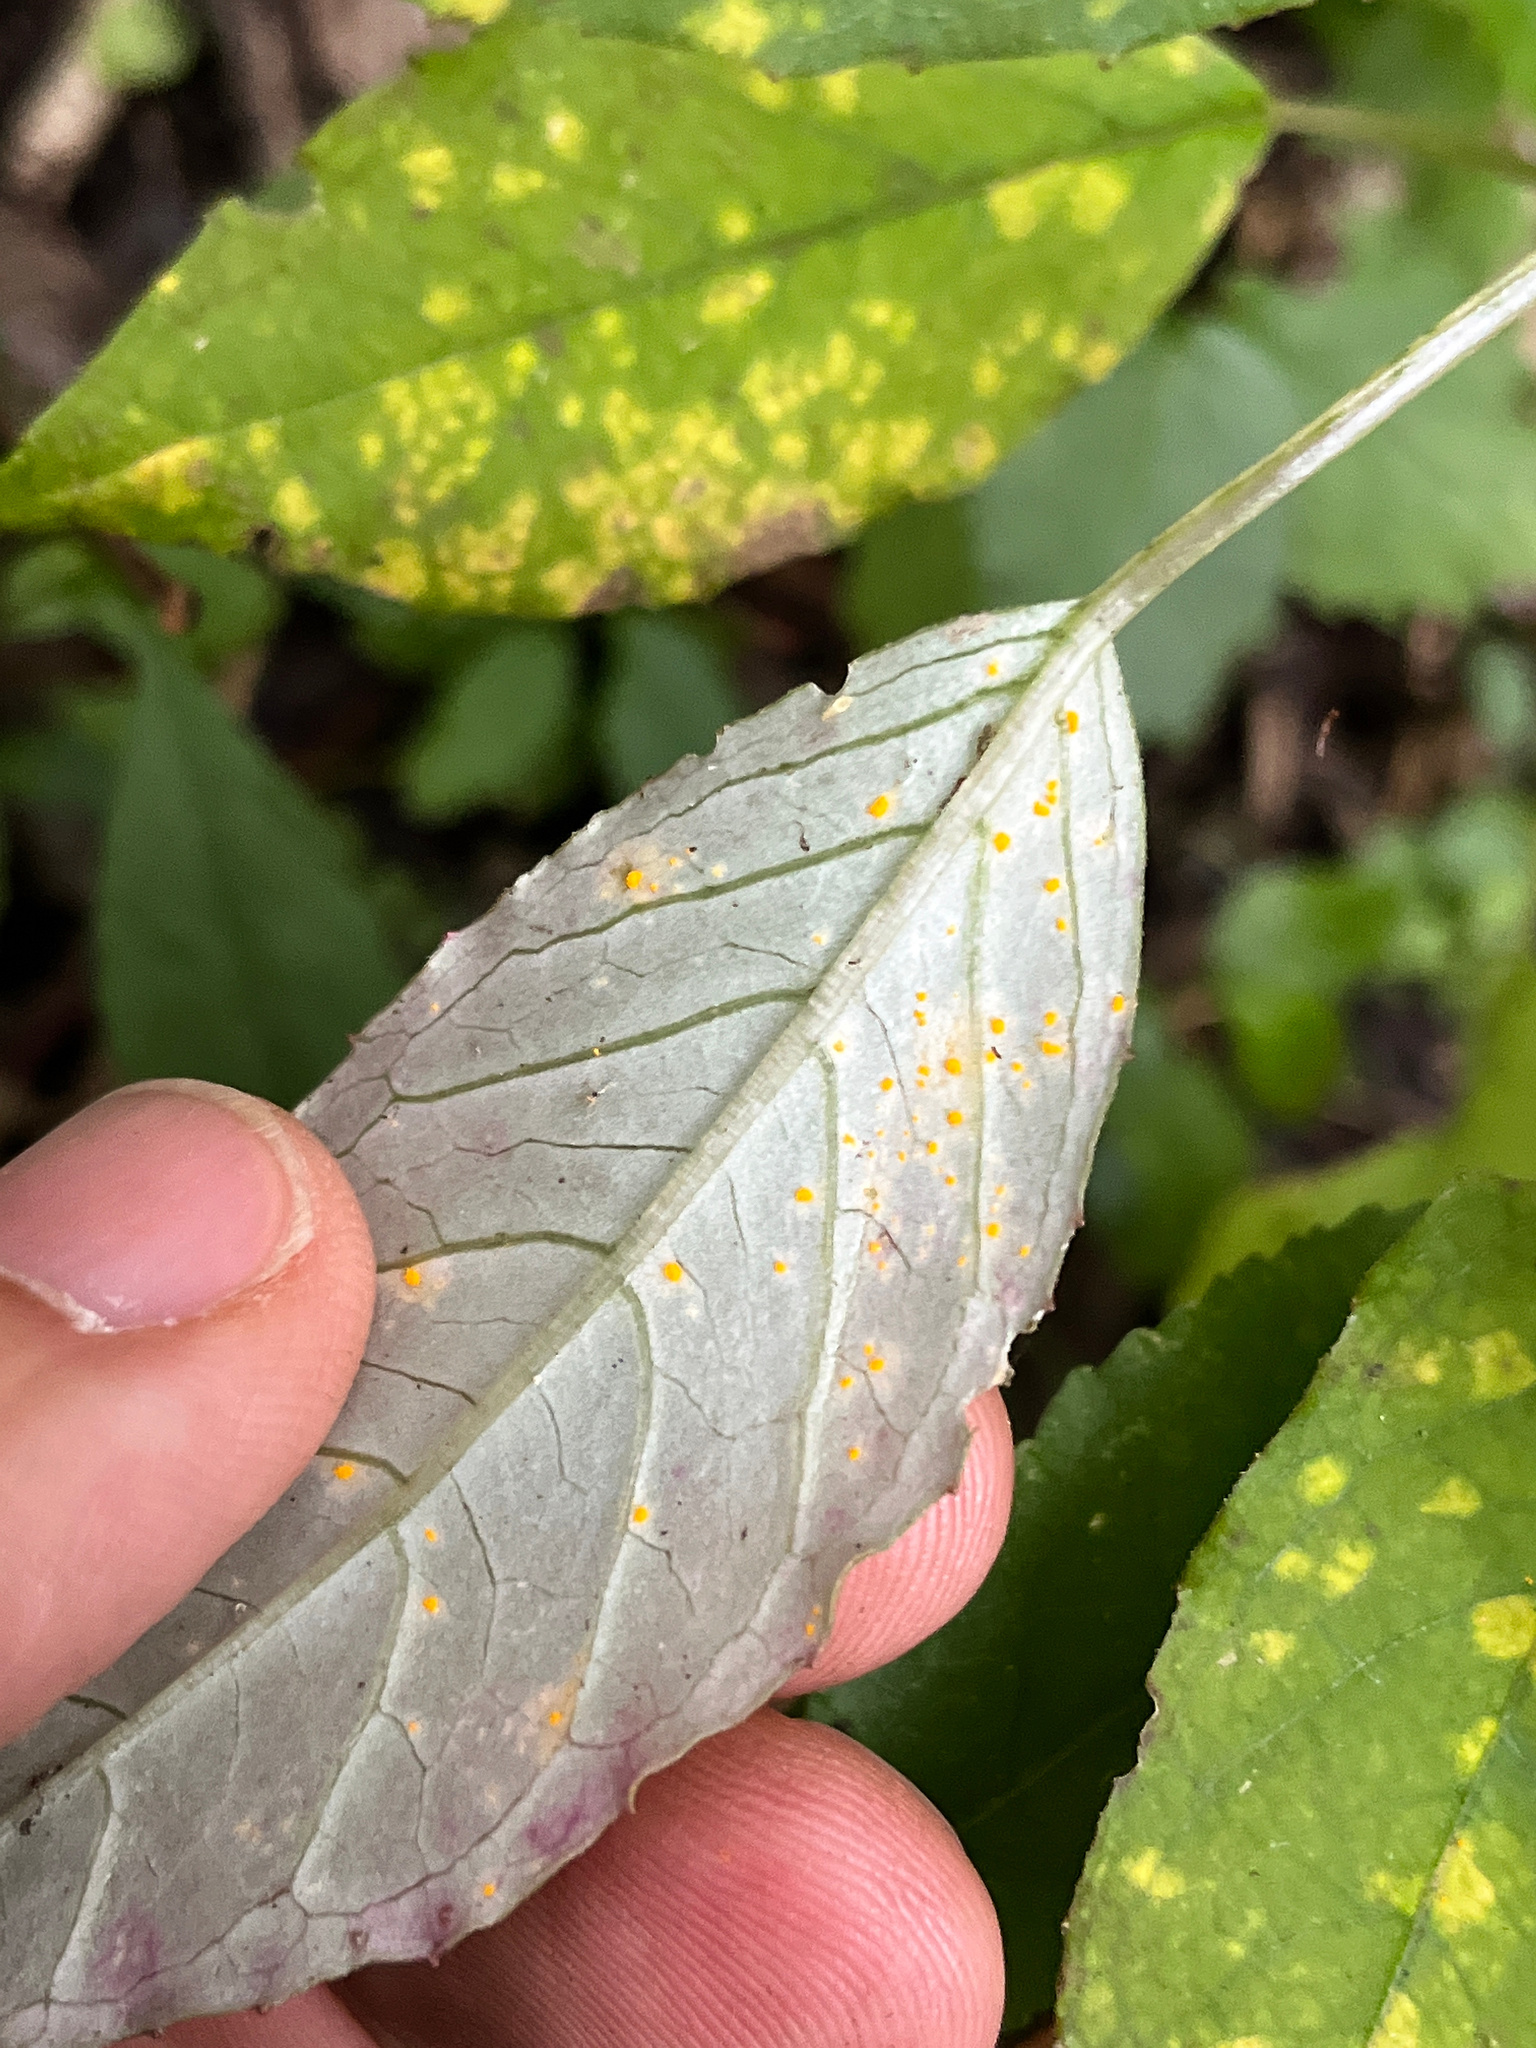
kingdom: Plantae
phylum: Tracheophyta
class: Magnoliopsida
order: Myrtales
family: Onagraceae
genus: Fuchsia
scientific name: Fuchsia excorticata
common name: Tree fuchsia
